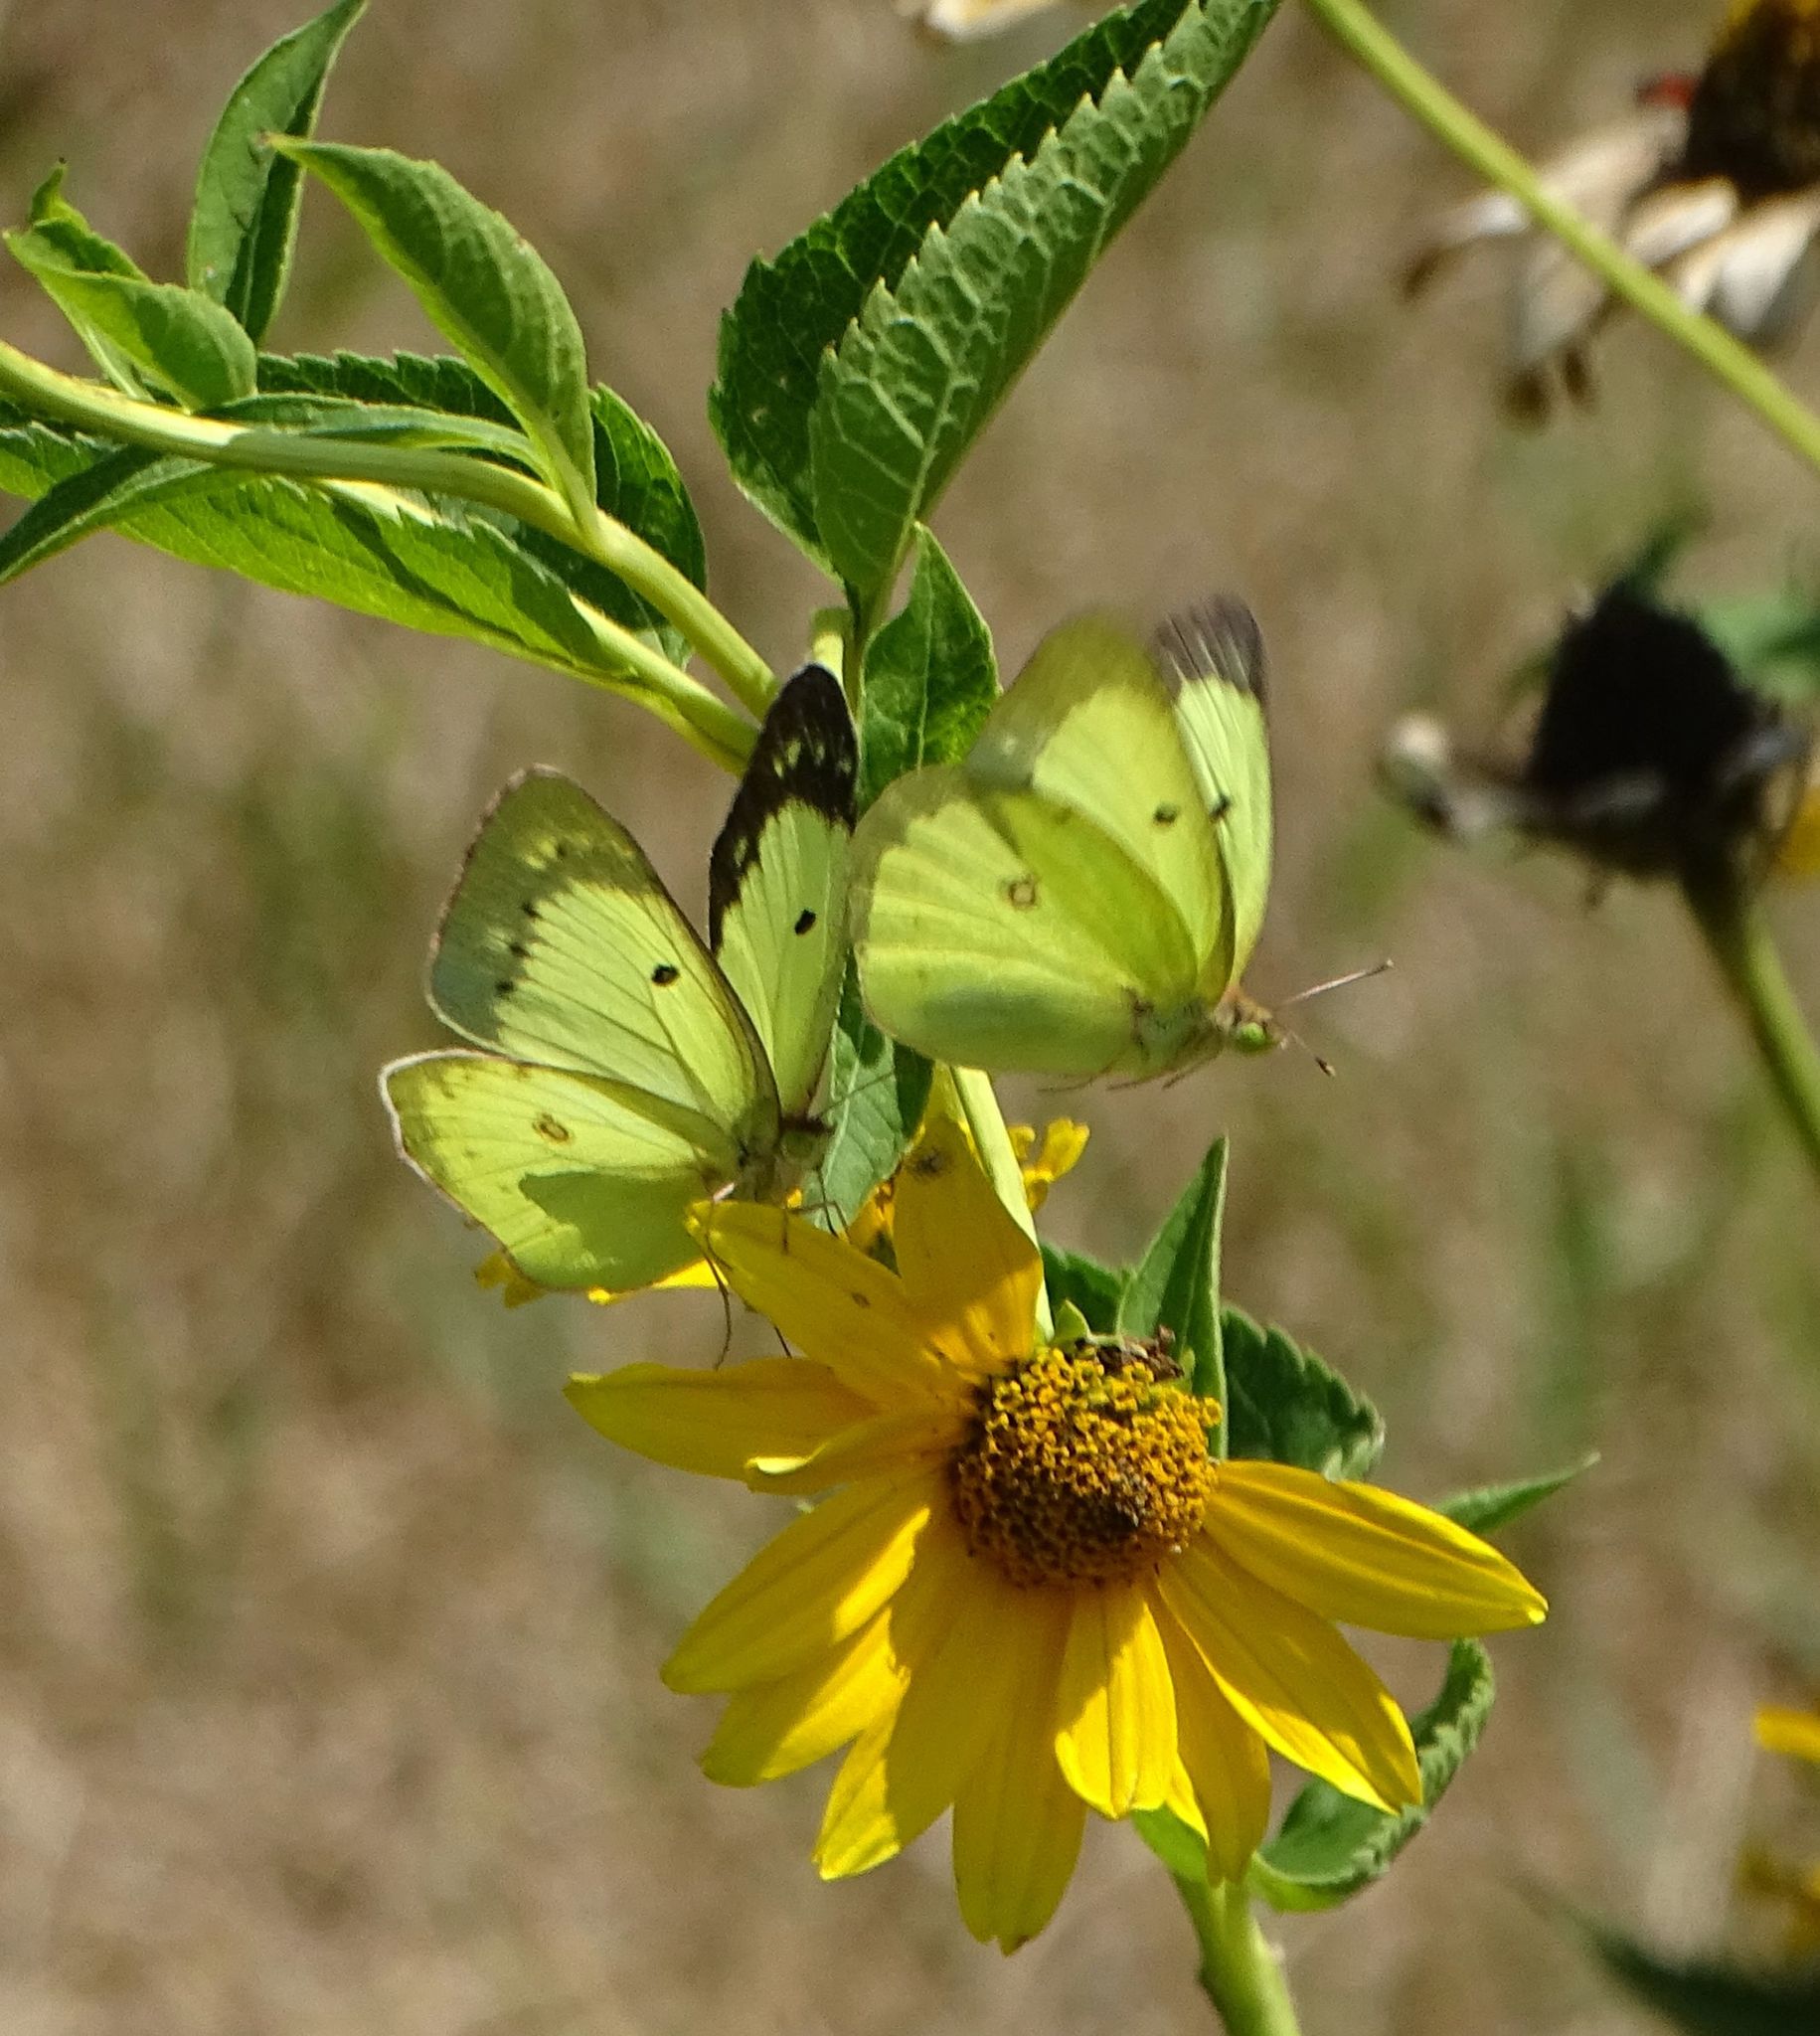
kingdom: Animalia
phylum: Arthropoda
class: Insecta
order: Lepidoptera
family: Pieridae
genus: Colias
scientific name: Colias philodice
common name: Clouded sulphur
